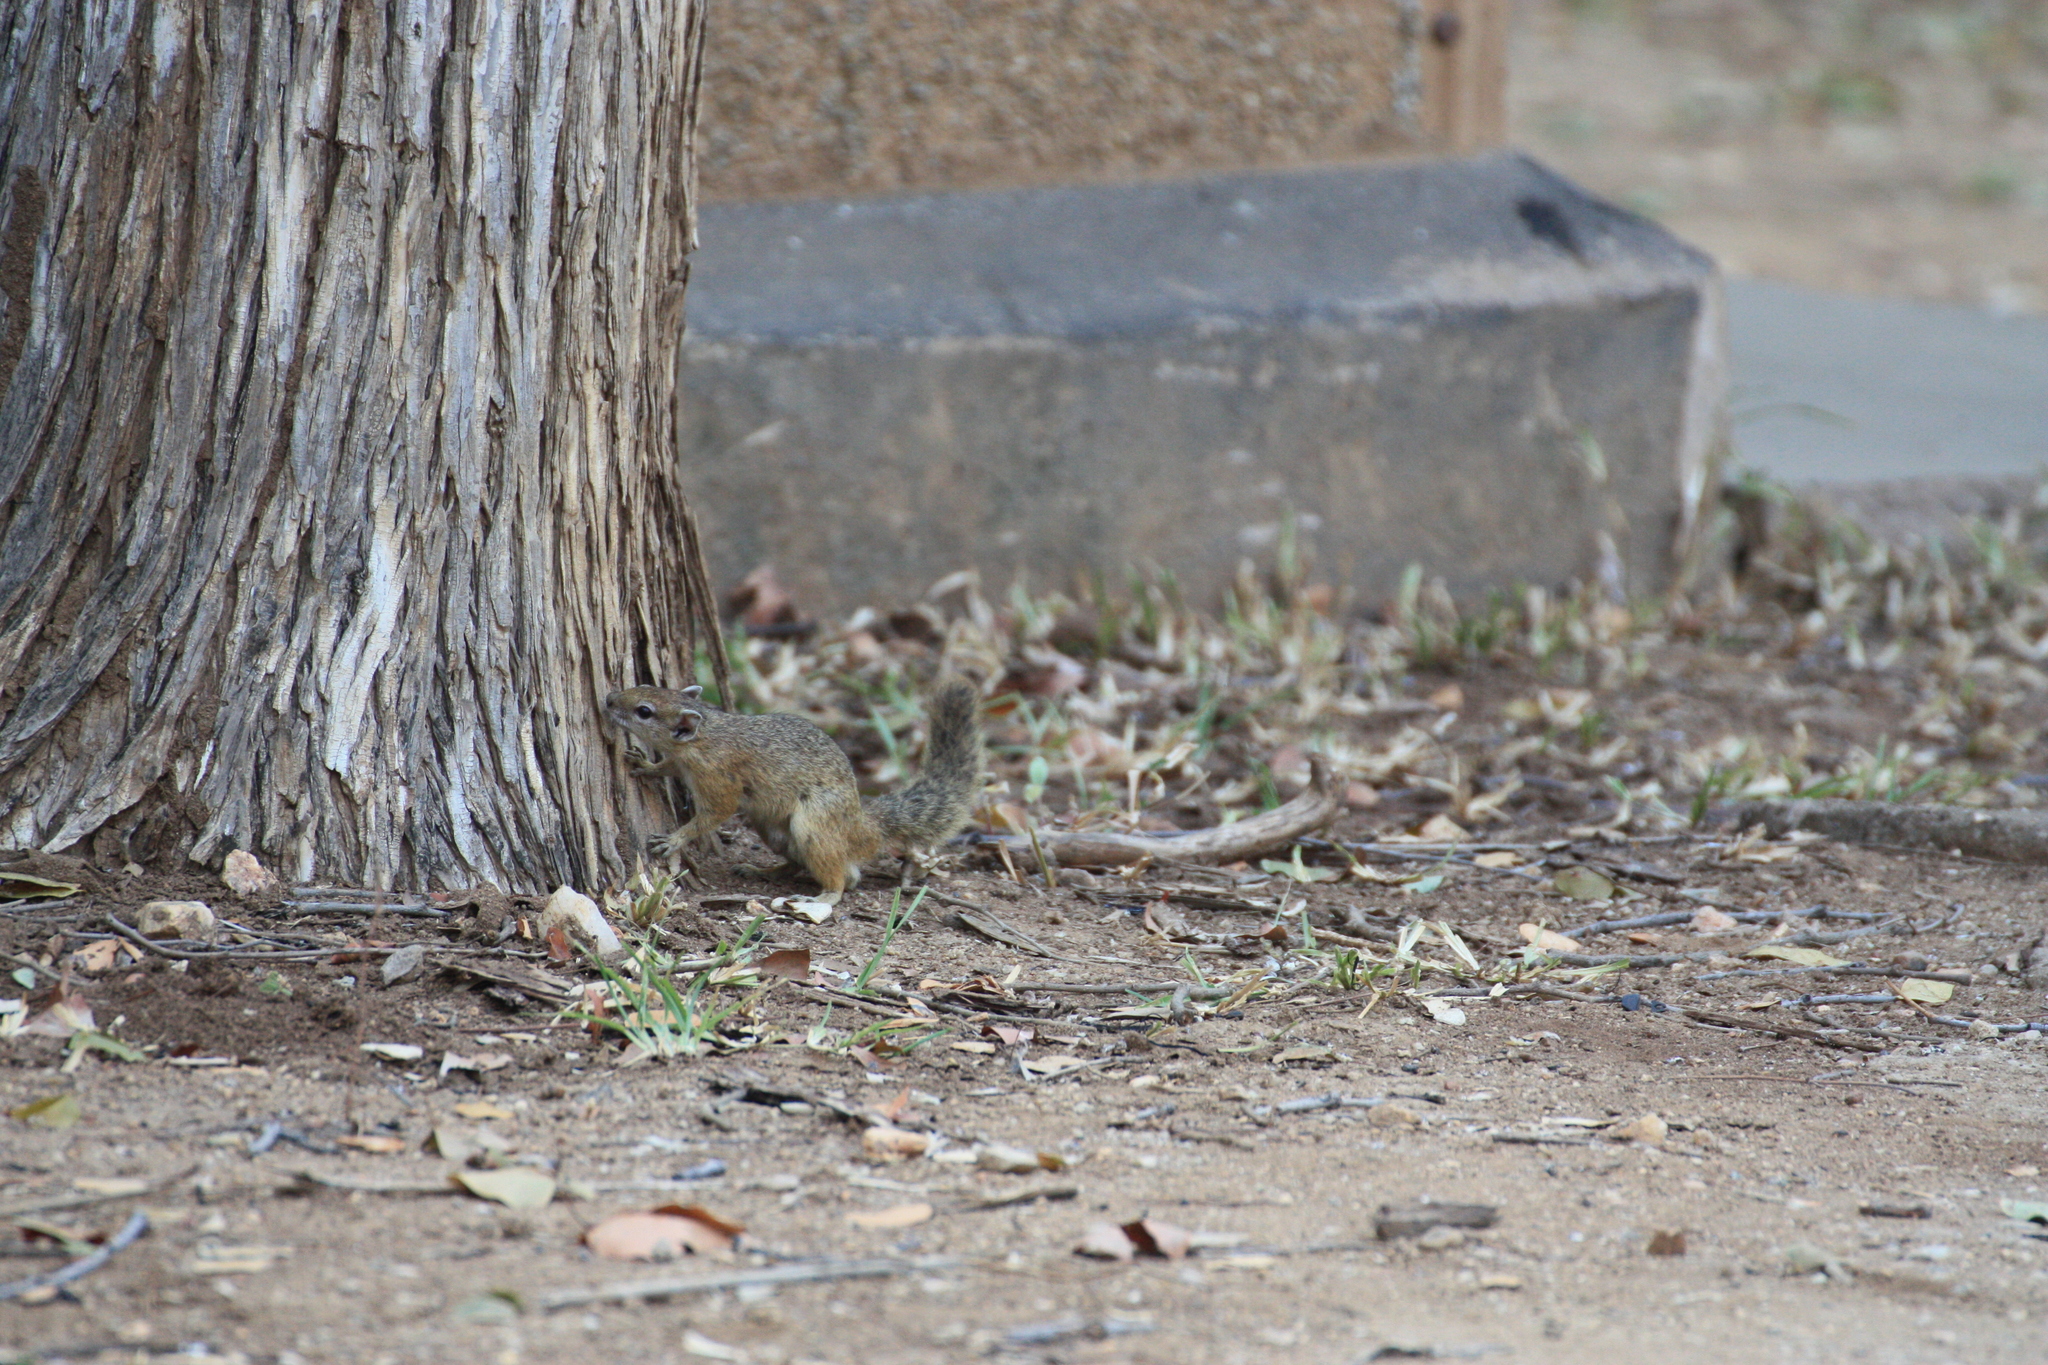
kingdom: Animalia
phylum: Chordata
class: Mammalia
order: Rodentia
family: Sciuridae
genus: Paraxerus
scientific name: Paraxerus cepapi
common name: Smith's bush squirrel
